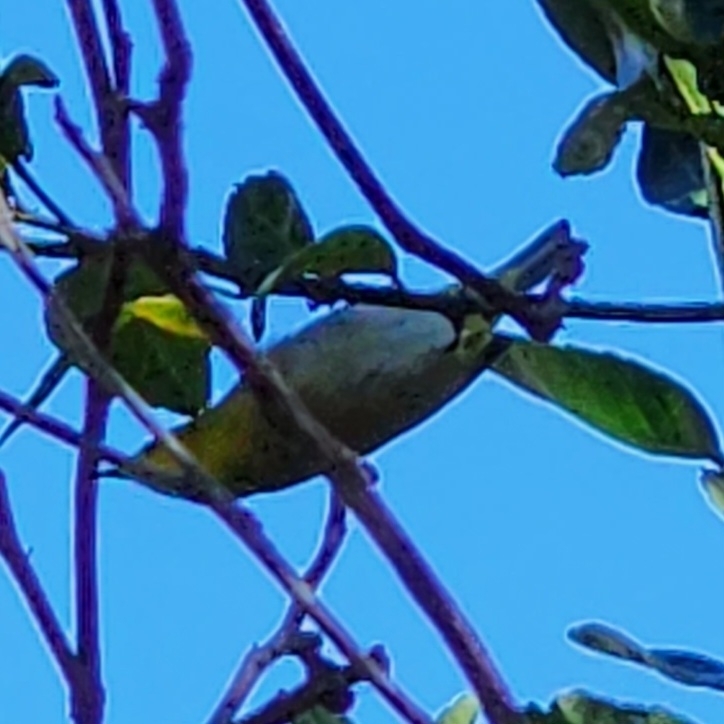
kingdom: Animalia
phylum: Chordata
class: Aves
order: Passeriformes
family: Zosteropidae
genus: Zosterops
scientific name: Zosterops japonicus
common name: Japanese white-eye
